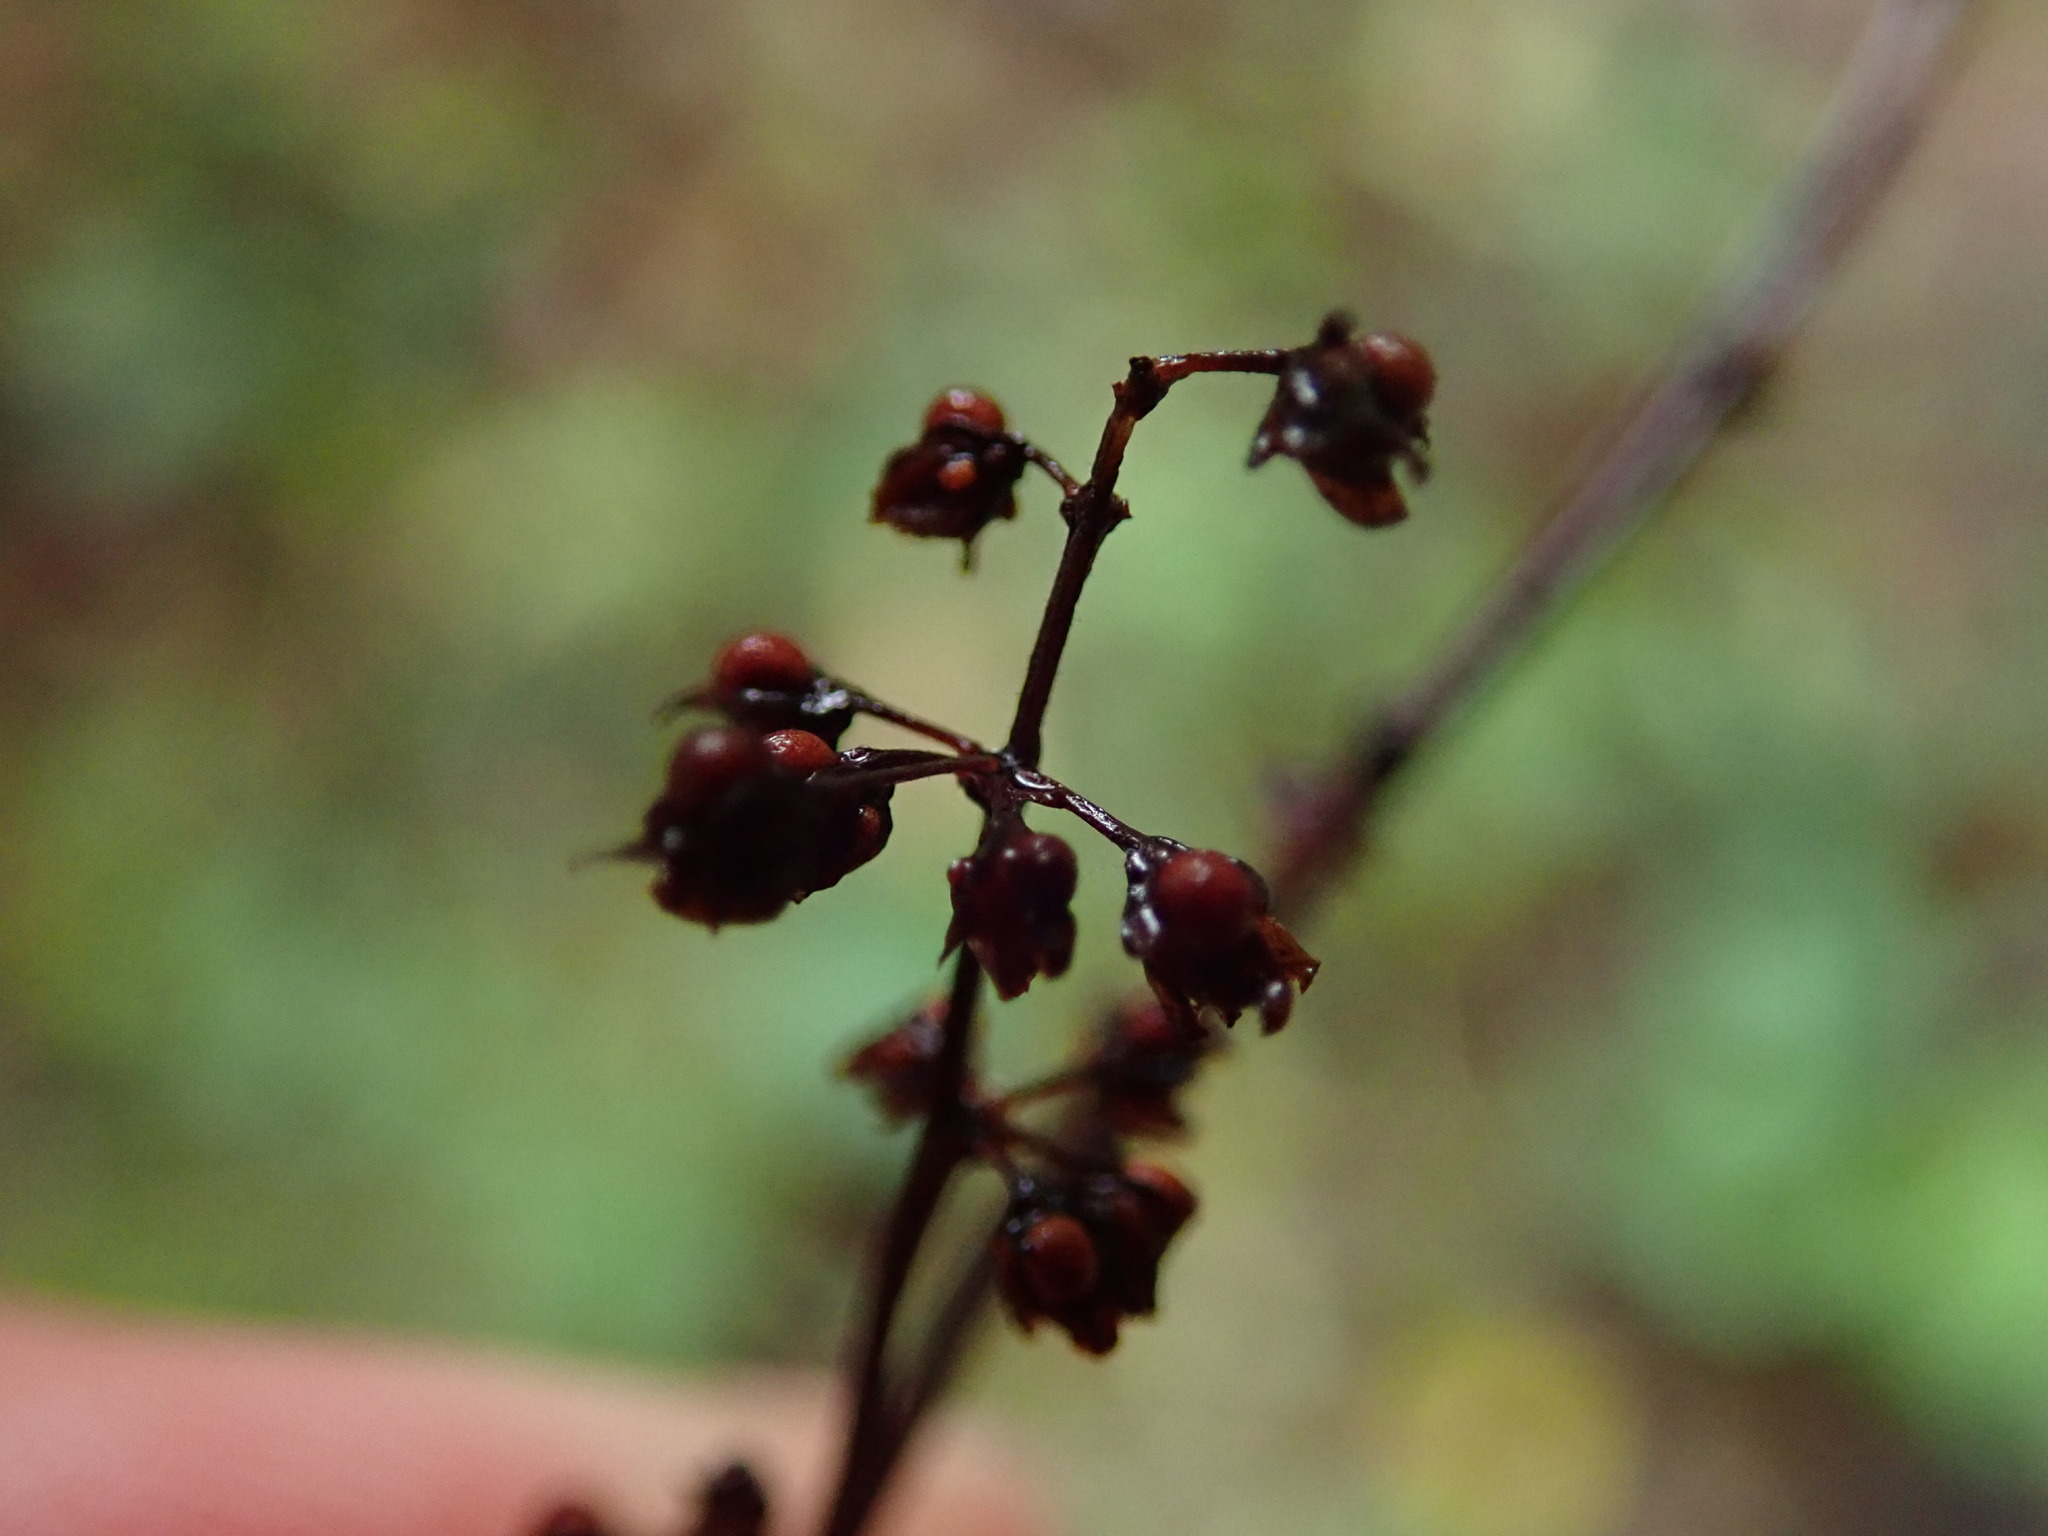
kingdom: Plantae
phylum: Tracheophyta
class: Magnoliopsida
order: Caryophyllales
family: Polygonaceae
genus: Rumex
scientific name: Rumex sanguineus
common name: Wood dock
